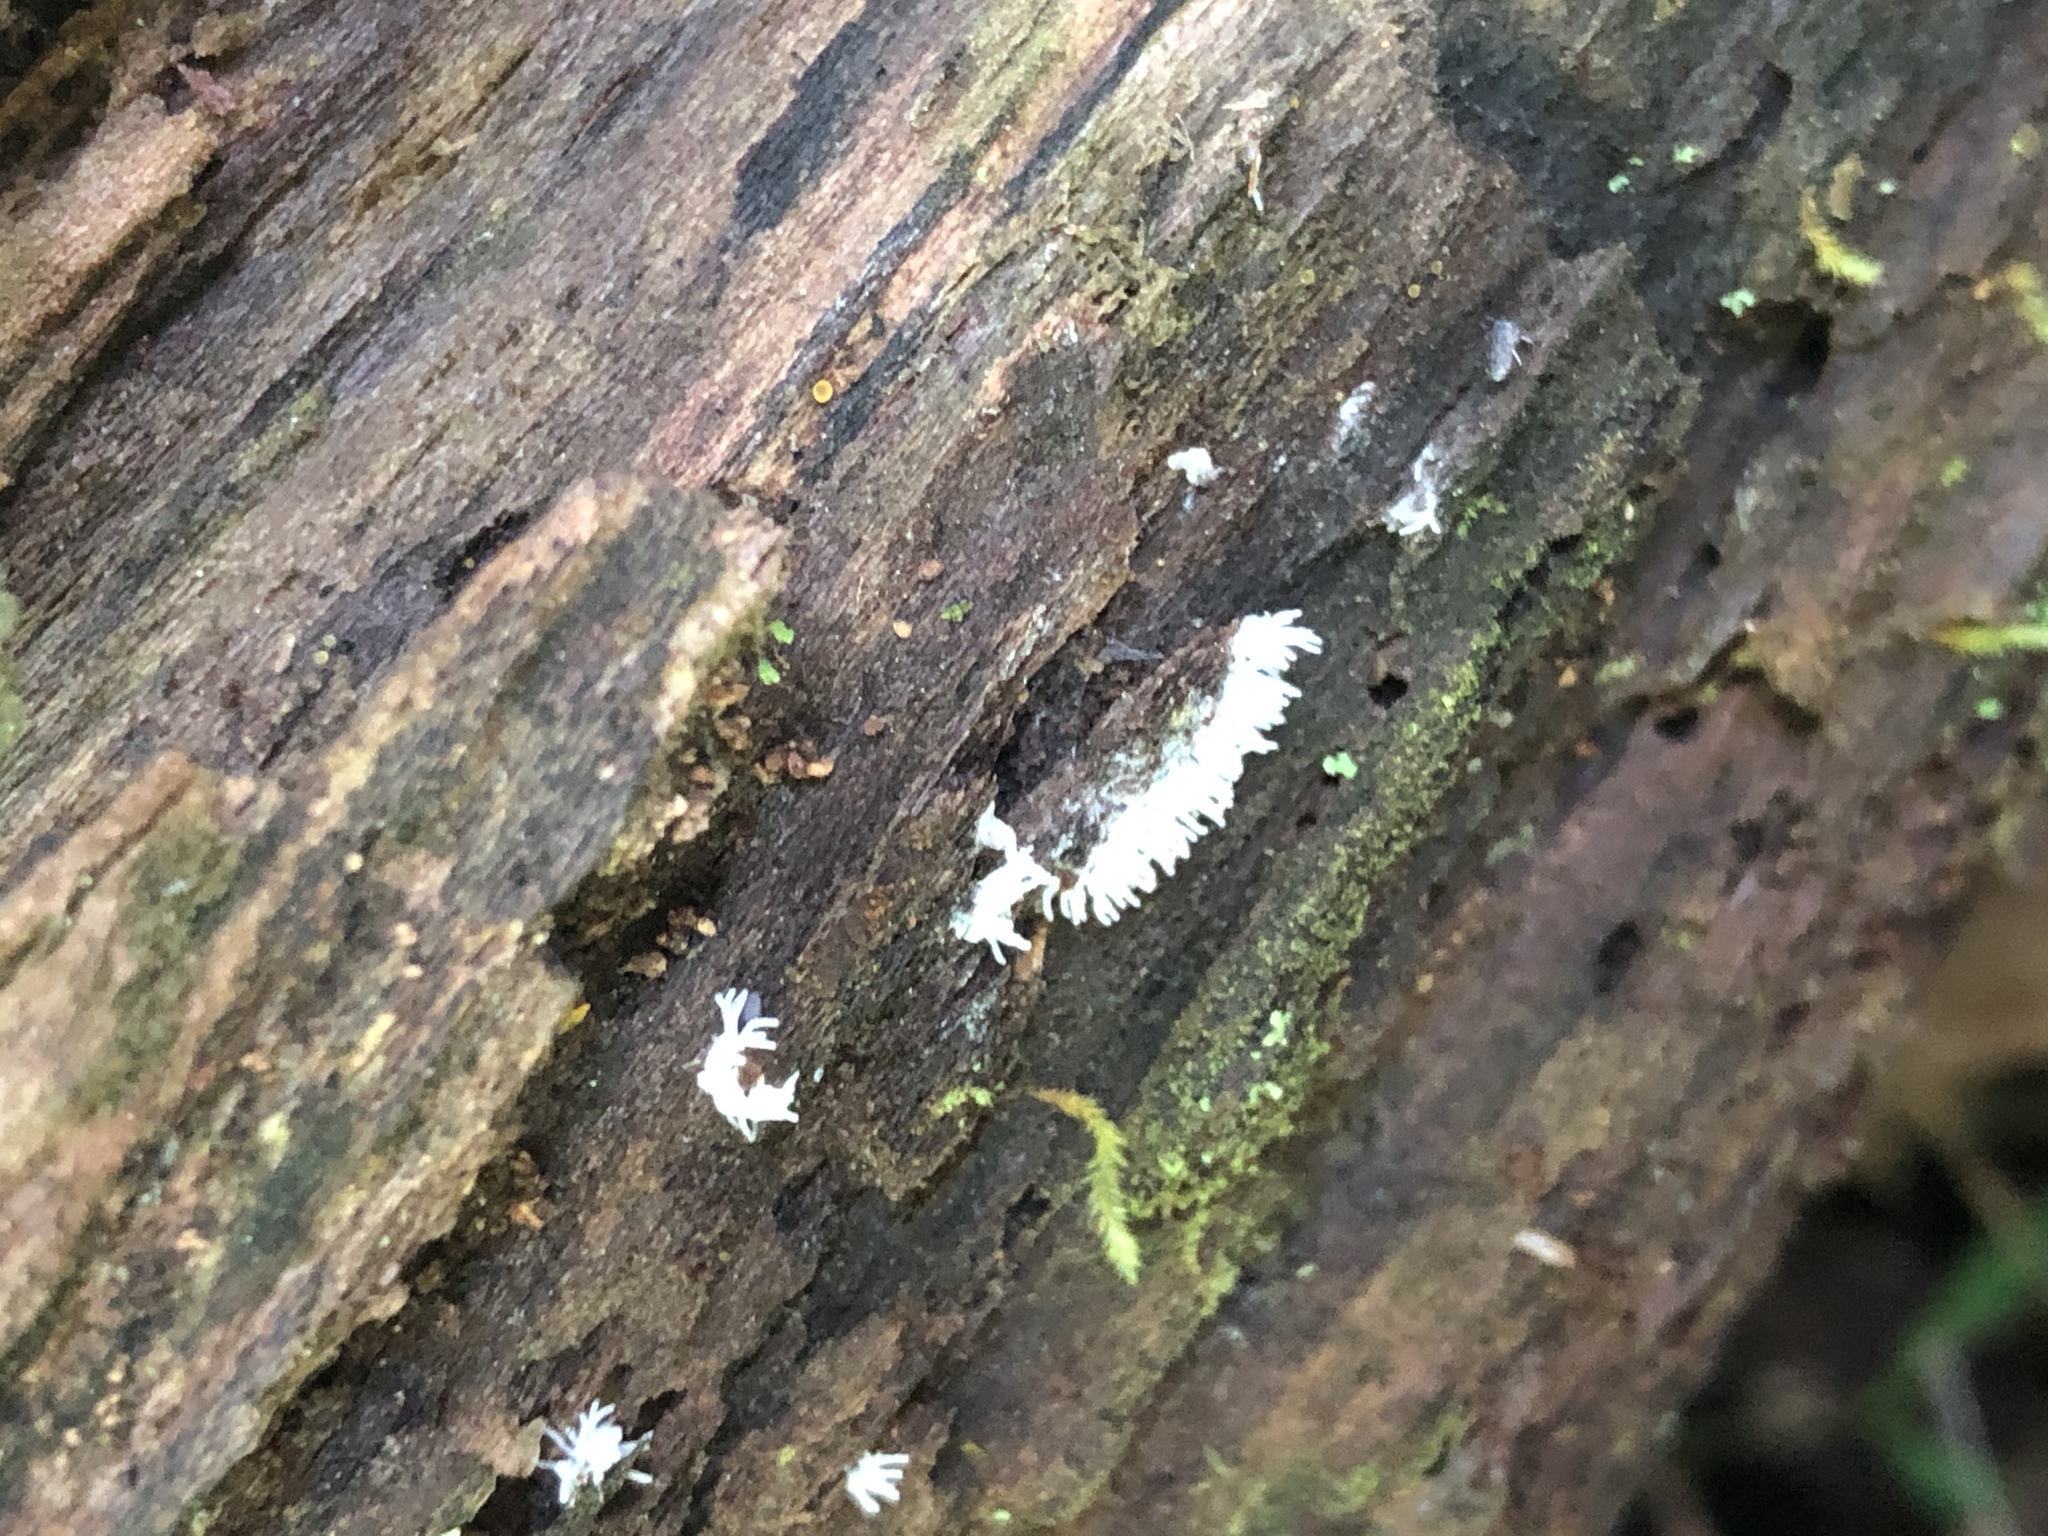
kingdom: Protozoa
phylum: Mycetozoa
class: Protosteliomycetes
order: Ceratiomyxales
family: Ceratiomyxaceae
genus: Ceratiomyxa
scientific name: Ceratiomyxa fruticulosa
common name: Honeycomb coral slime mold
